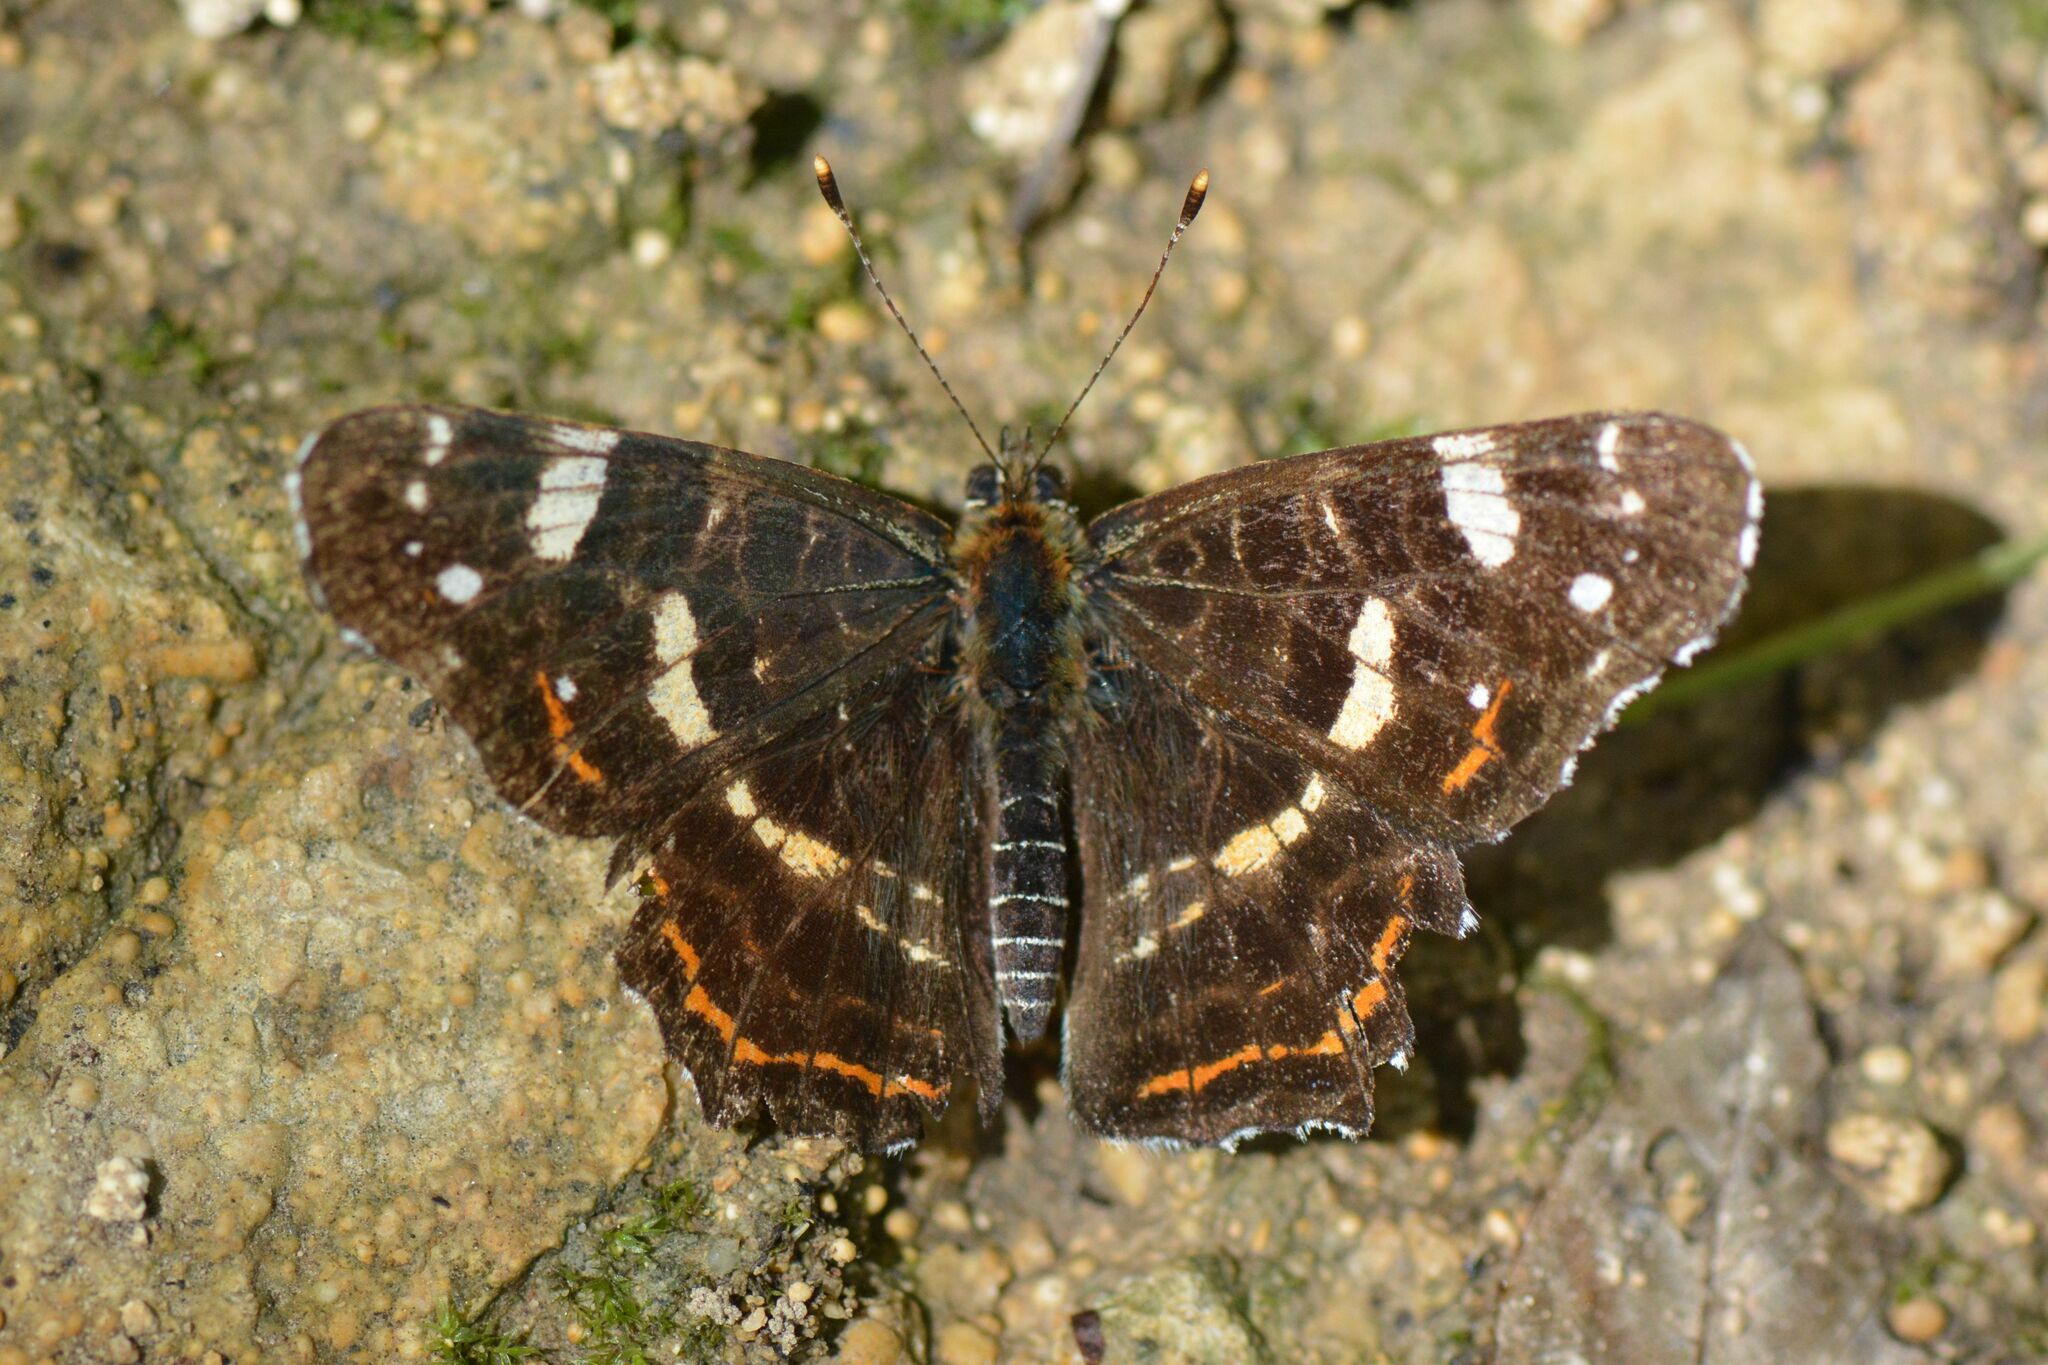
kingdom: Animalia
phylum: Arthropoda
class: Insecta
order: Lepidoptera
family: Nymphalidae
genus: Araschnia
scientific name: Araschnia levana
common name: Map butterfly
